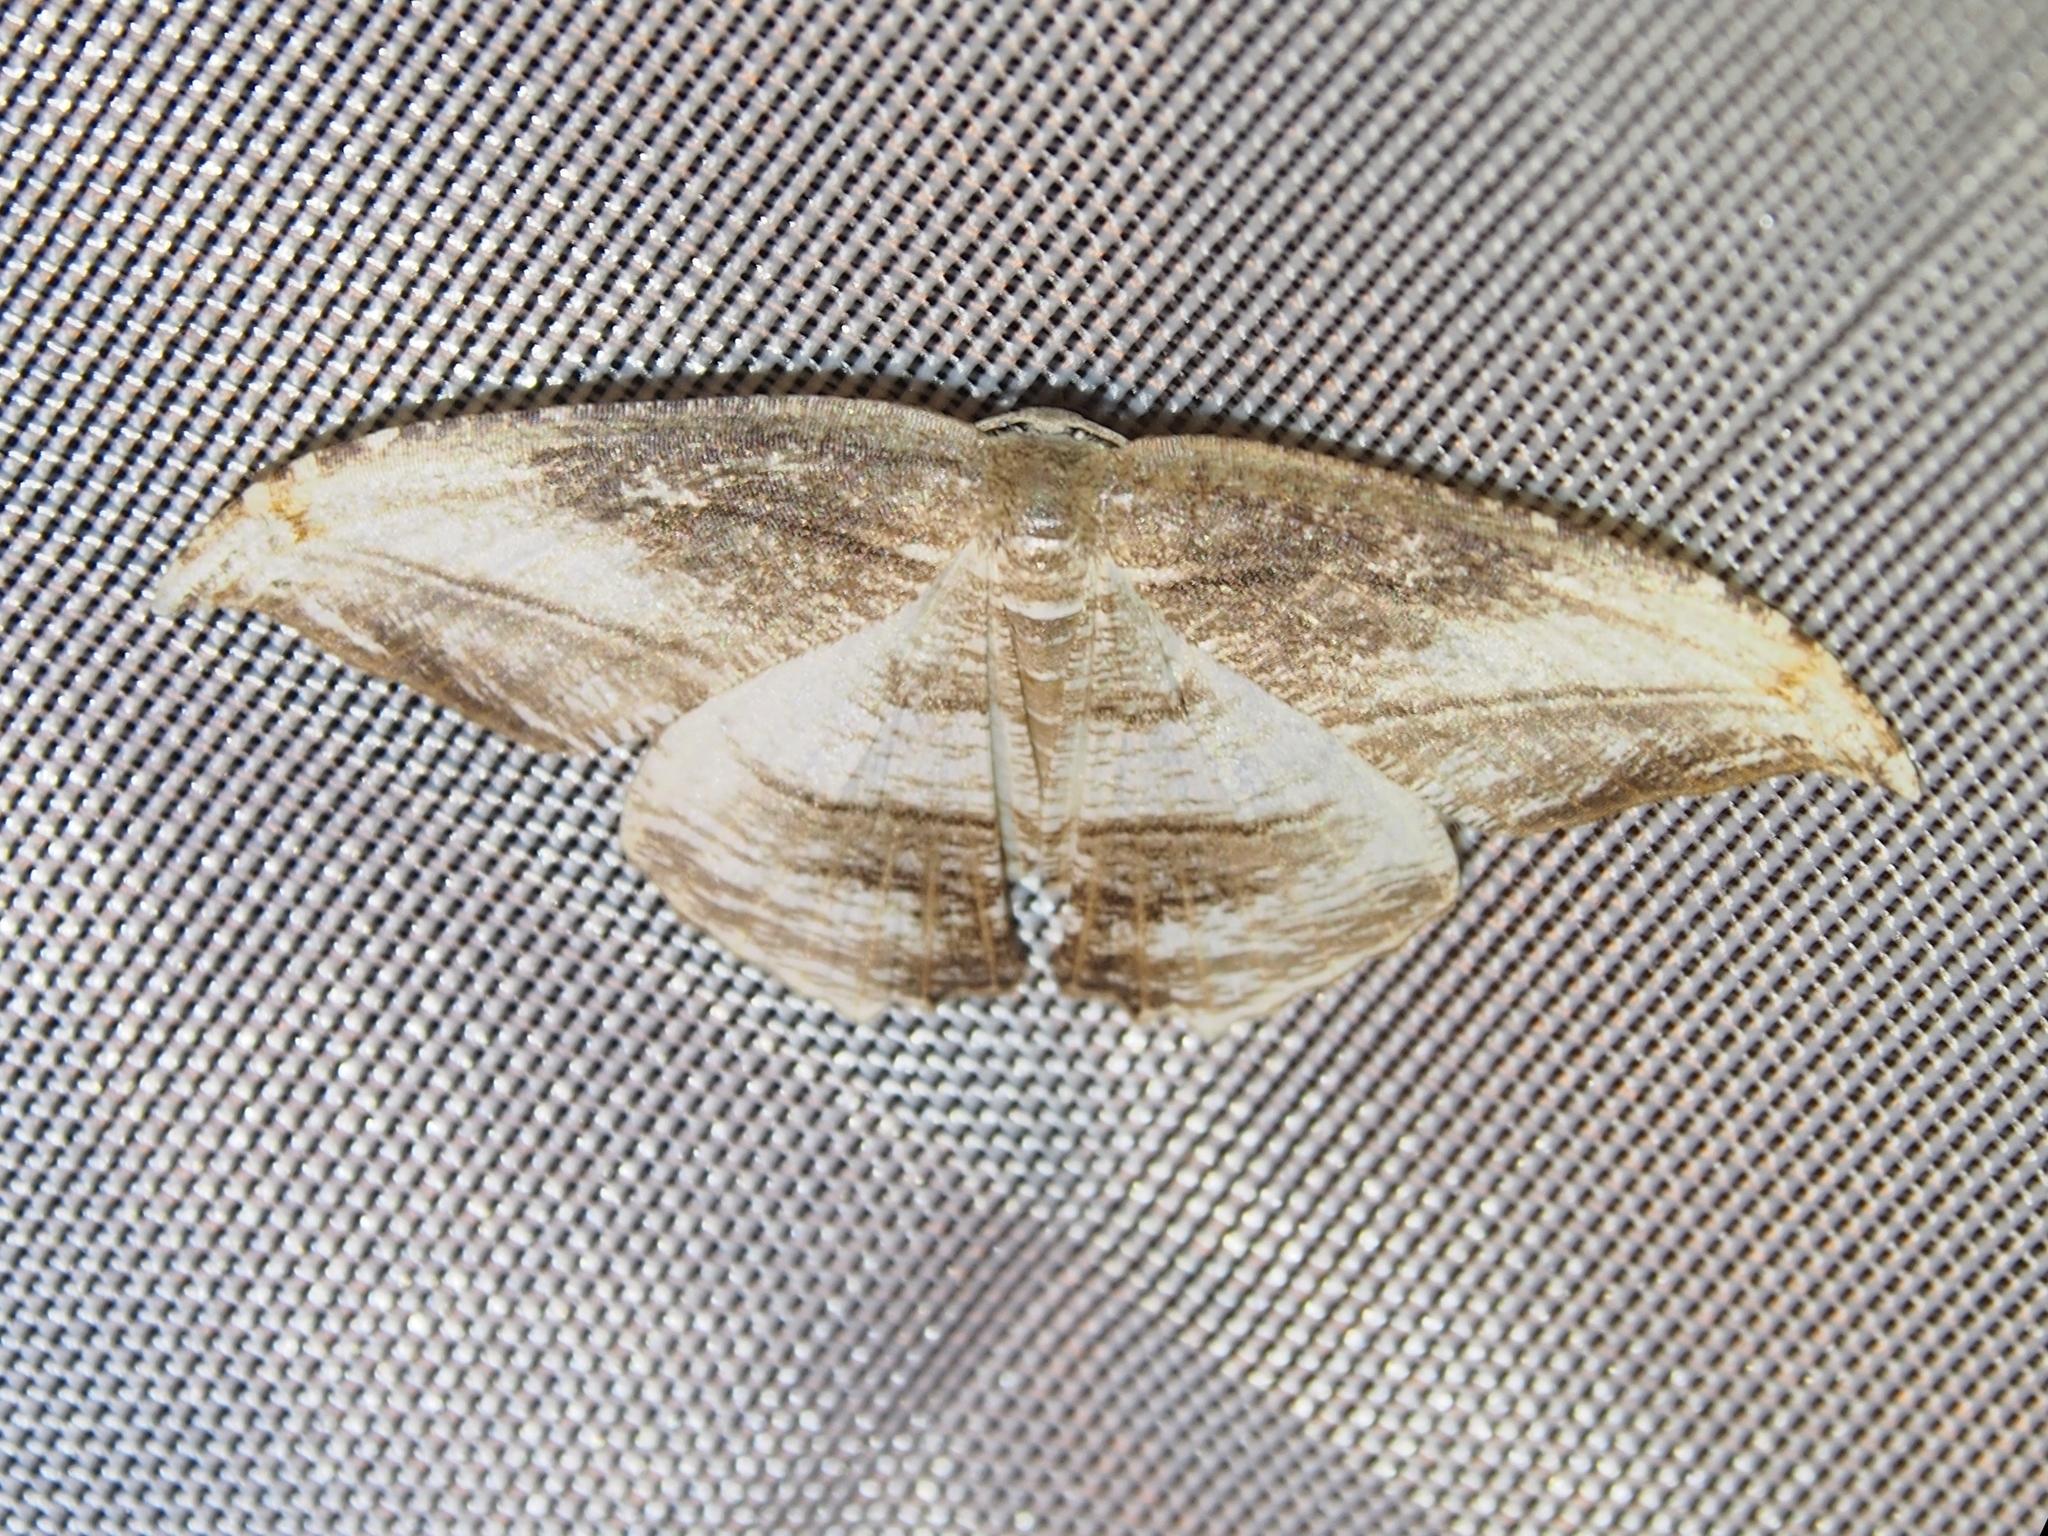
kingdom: Animalia
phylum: Arthropoda
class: Insecta
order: Lepidoptera
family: Uraniidae
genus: Morphomima
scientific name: Morphomima fulvitacta
